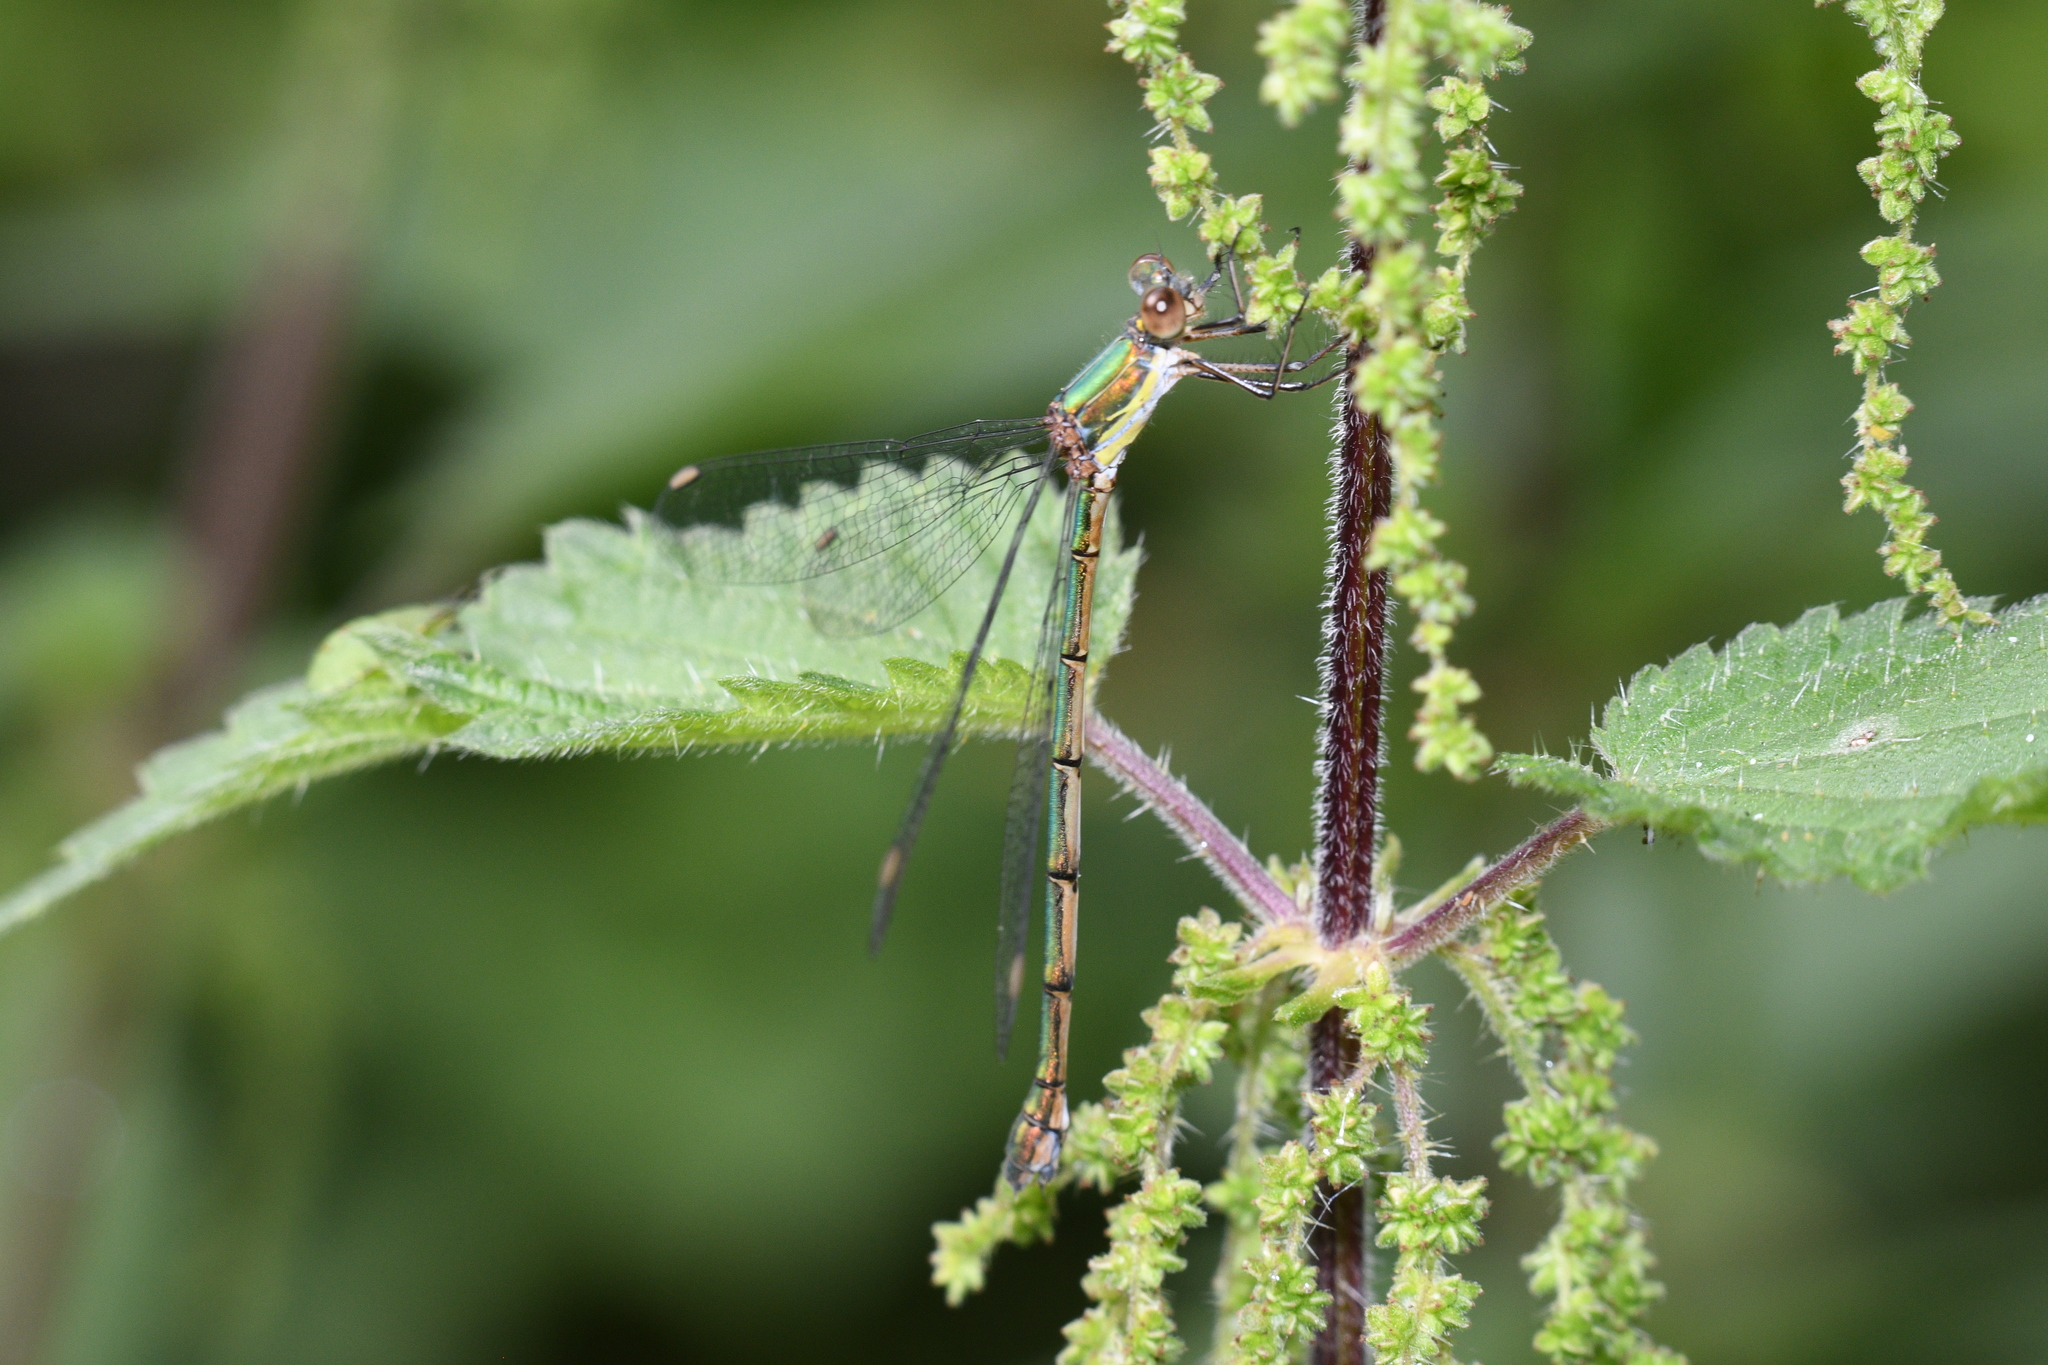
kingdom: Animalia
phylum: Arthropoda
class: Insecta
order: Odonata
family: Lestidae
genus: Chalcolestes
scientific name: Chalcolestes viridis
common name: Green emerald damselfly
